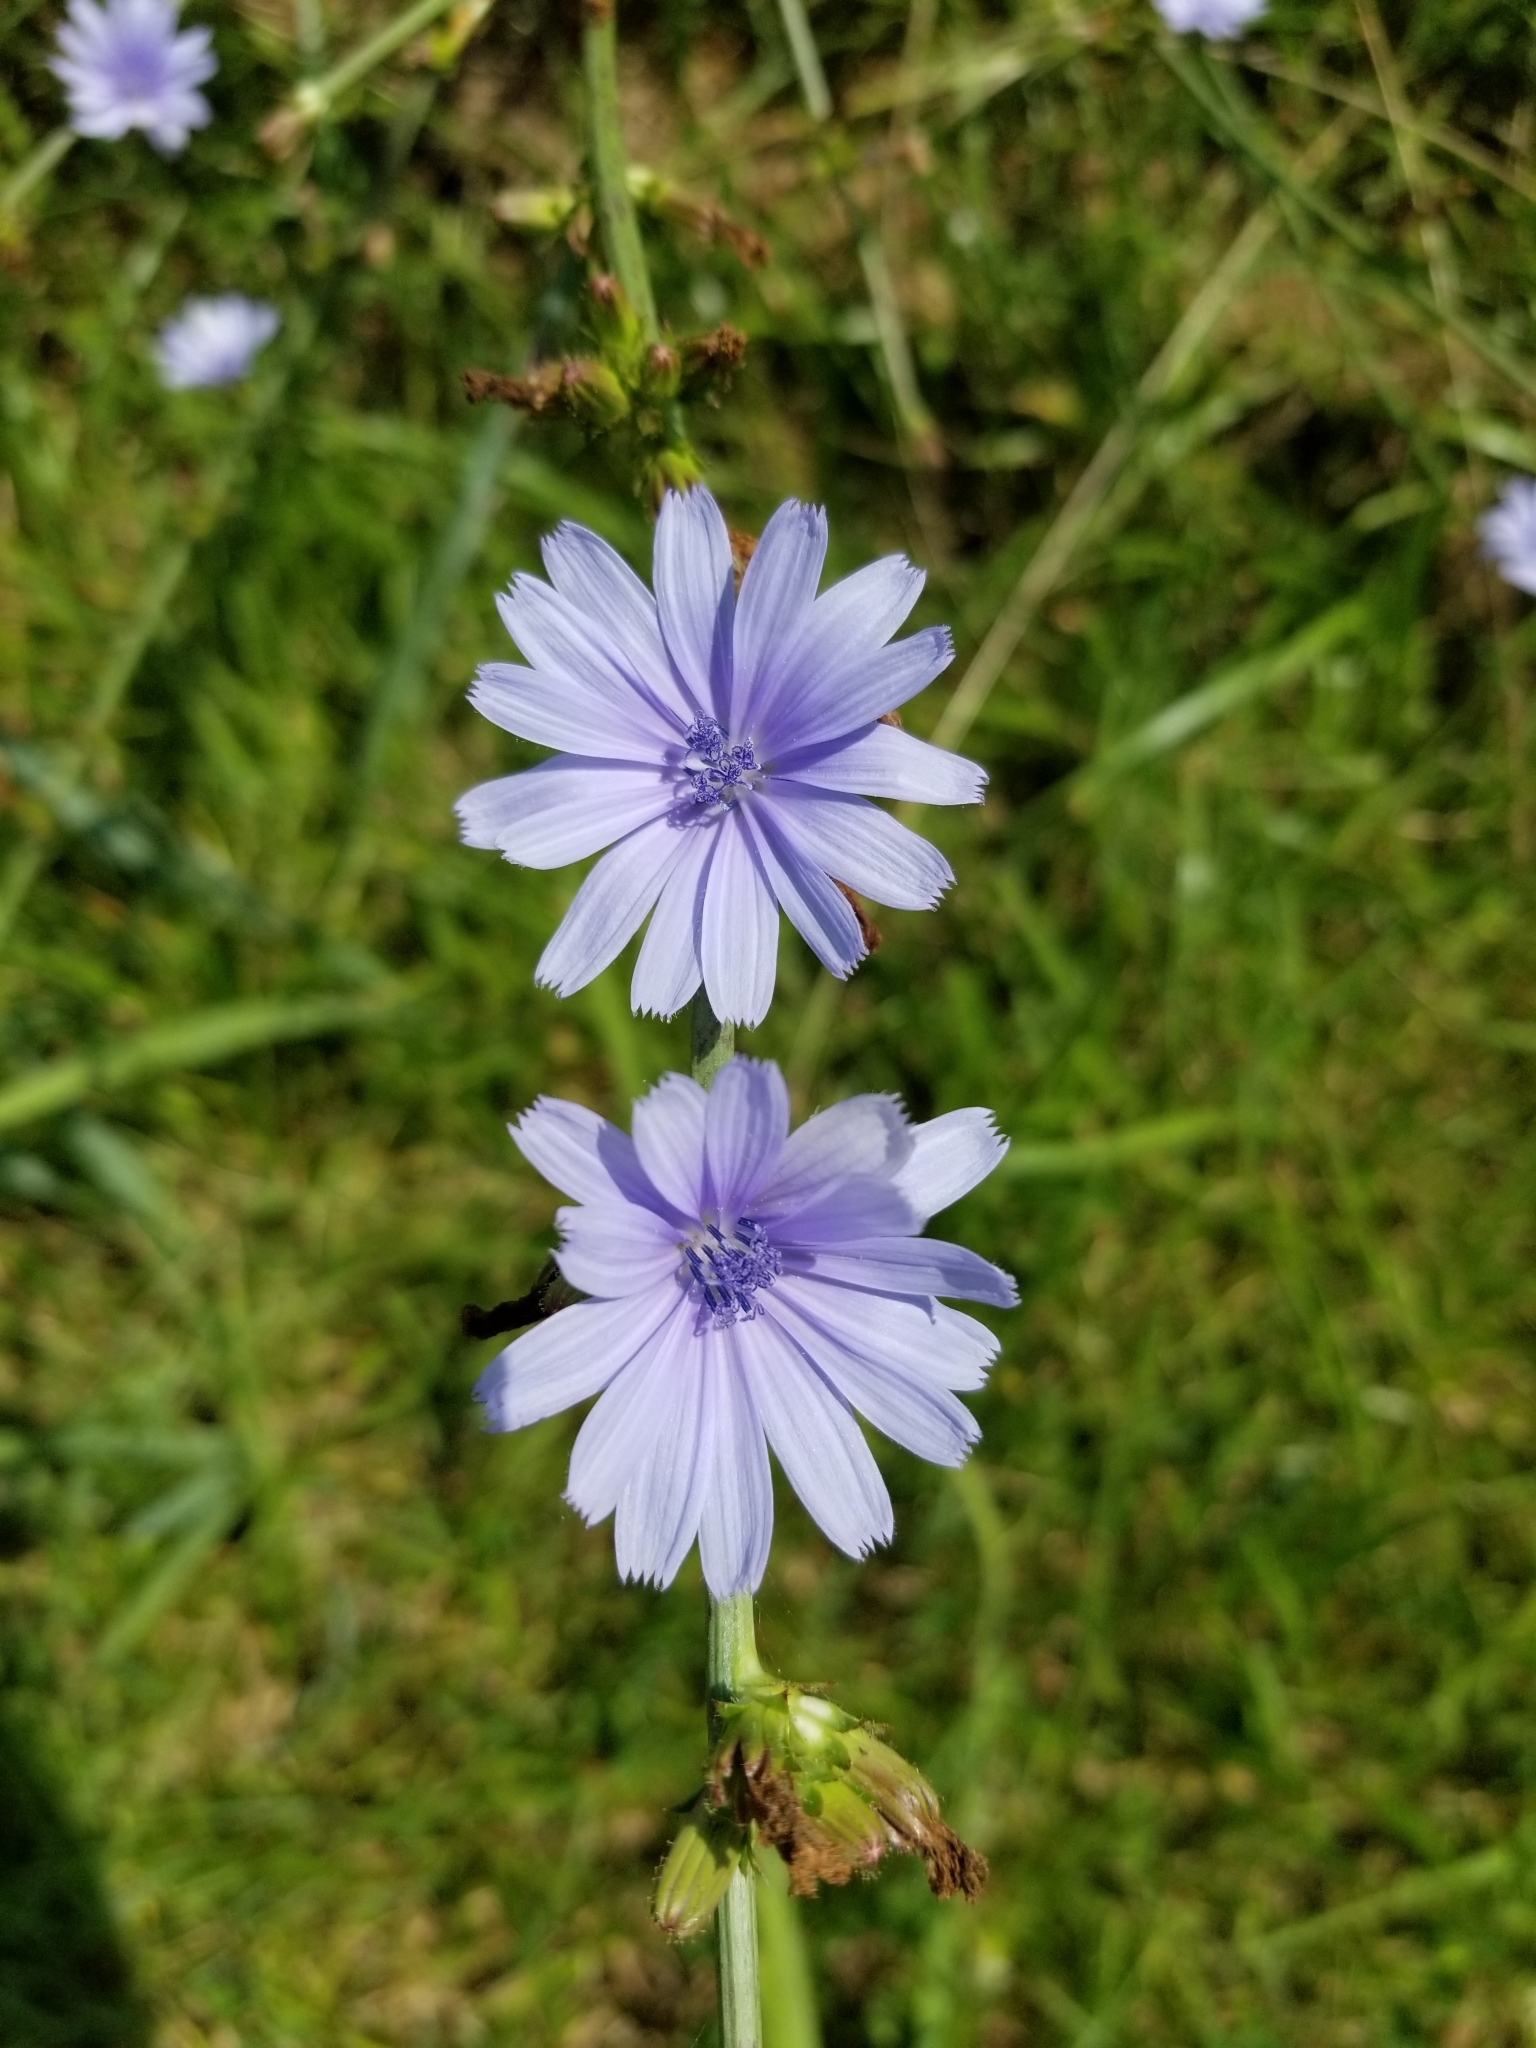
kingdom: Plantae
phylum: Tracheophyta
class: Magnoliopsida
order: Asterales
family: Asteraceae
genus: Cichorium
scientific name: Cichorium intybus
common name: Chicory
